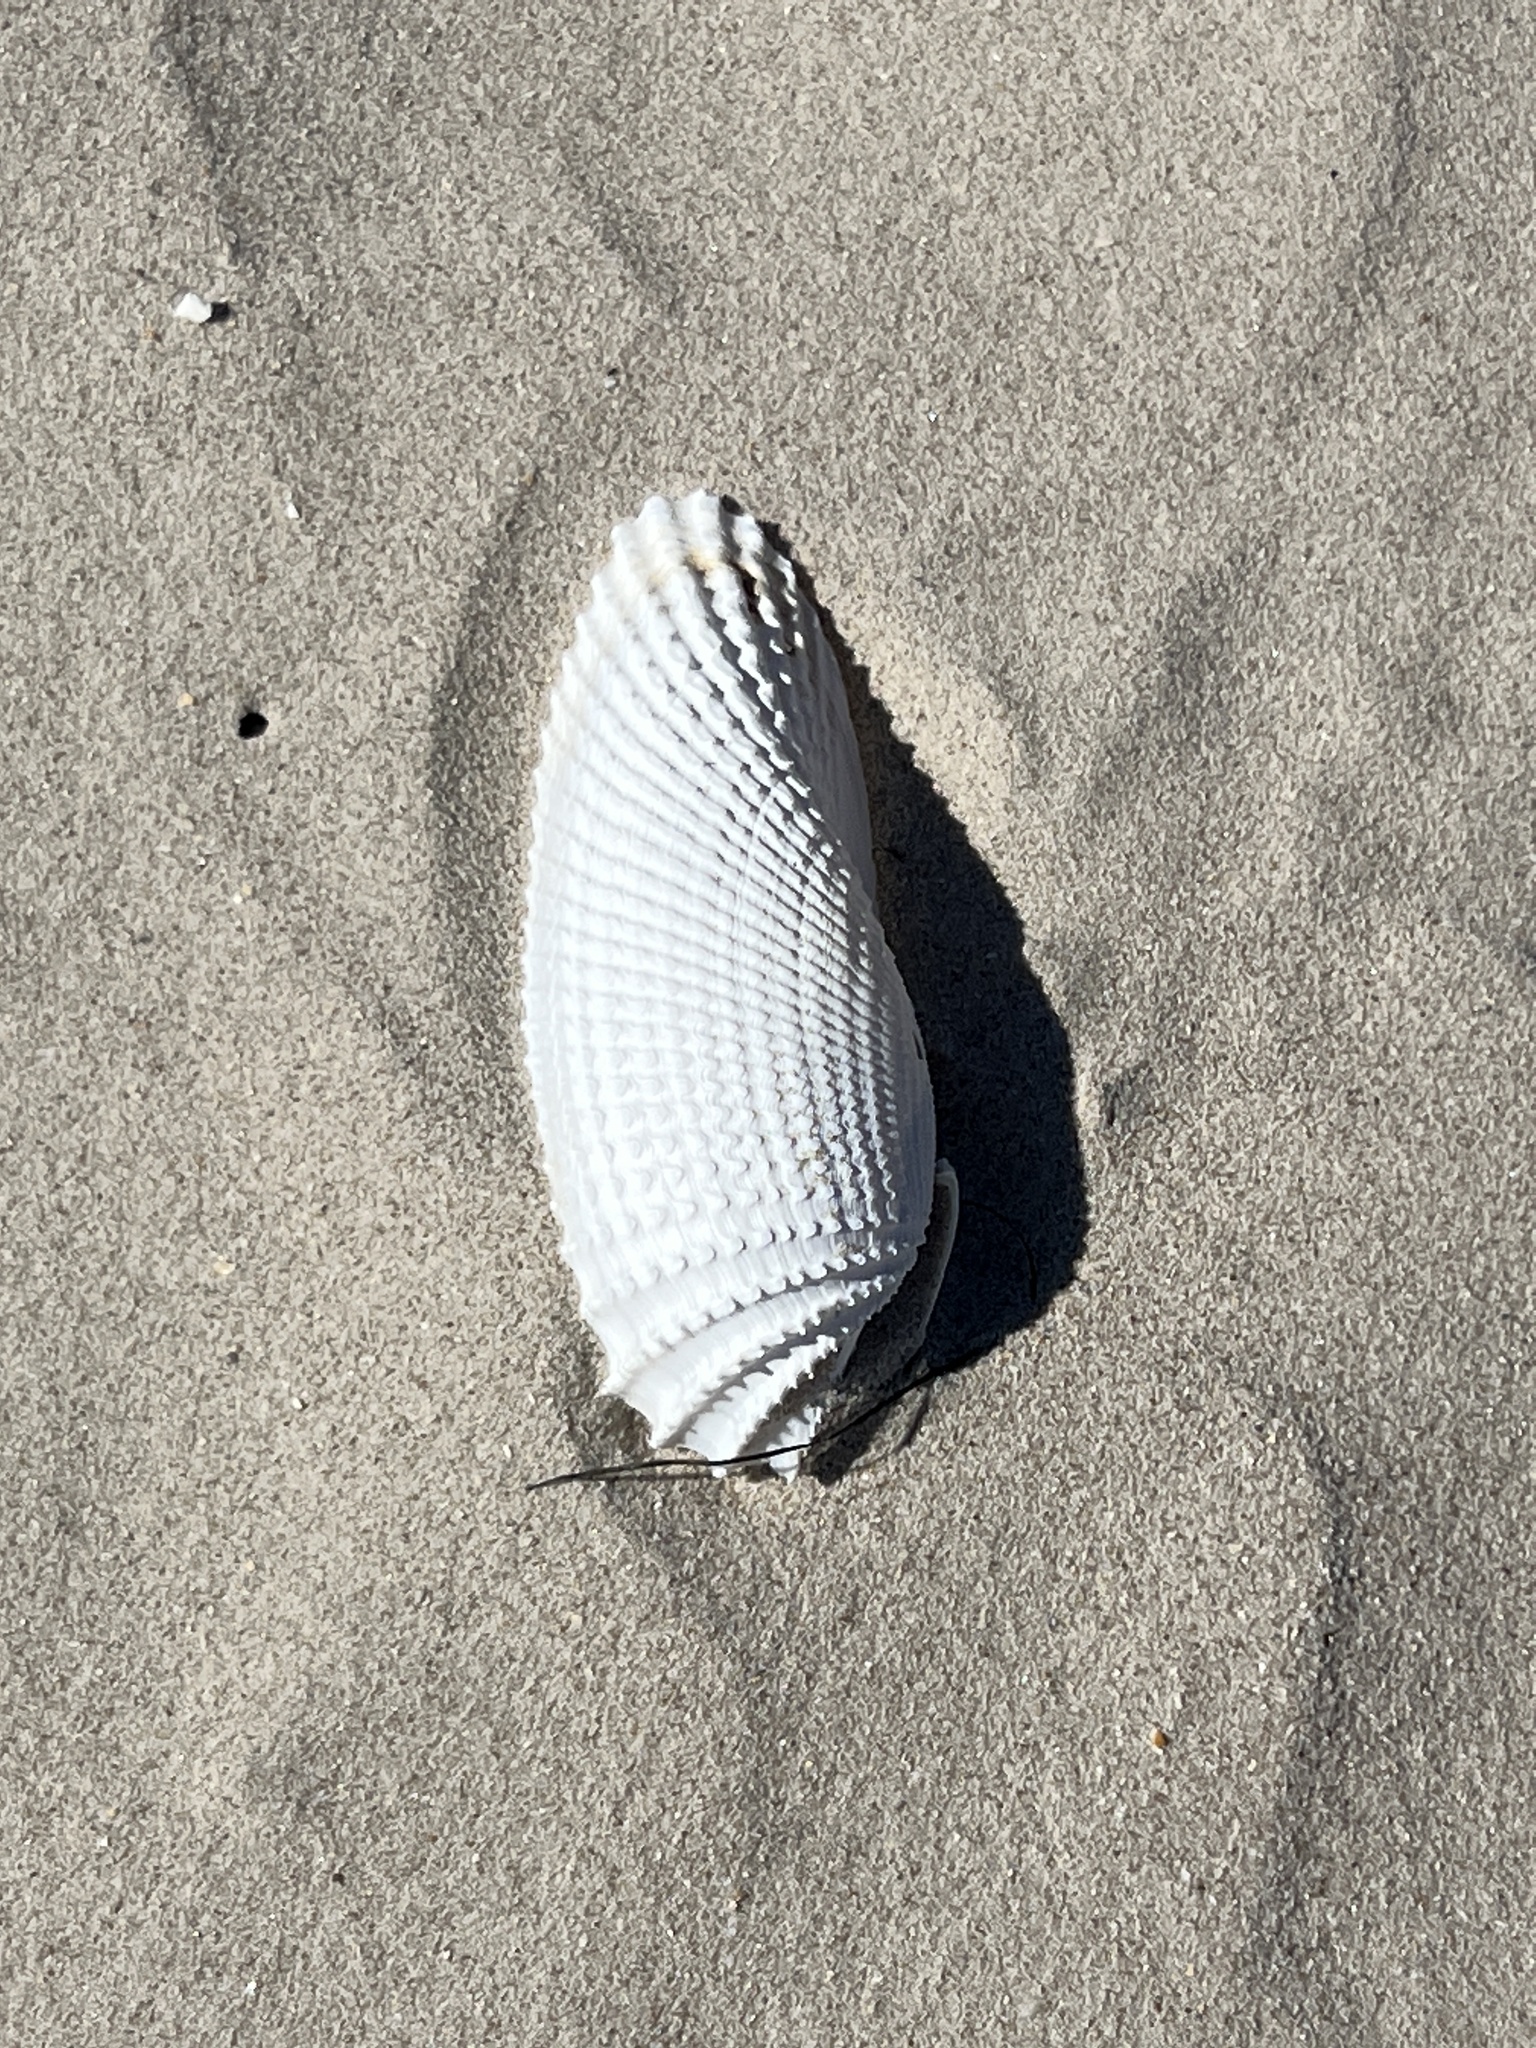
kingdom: Animalia
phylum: Mollusca
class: Bivalvia
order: Myida
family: Pholadidae
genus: Cyrtopleura
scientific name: Cyrtopleura costata
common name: Angel wing
